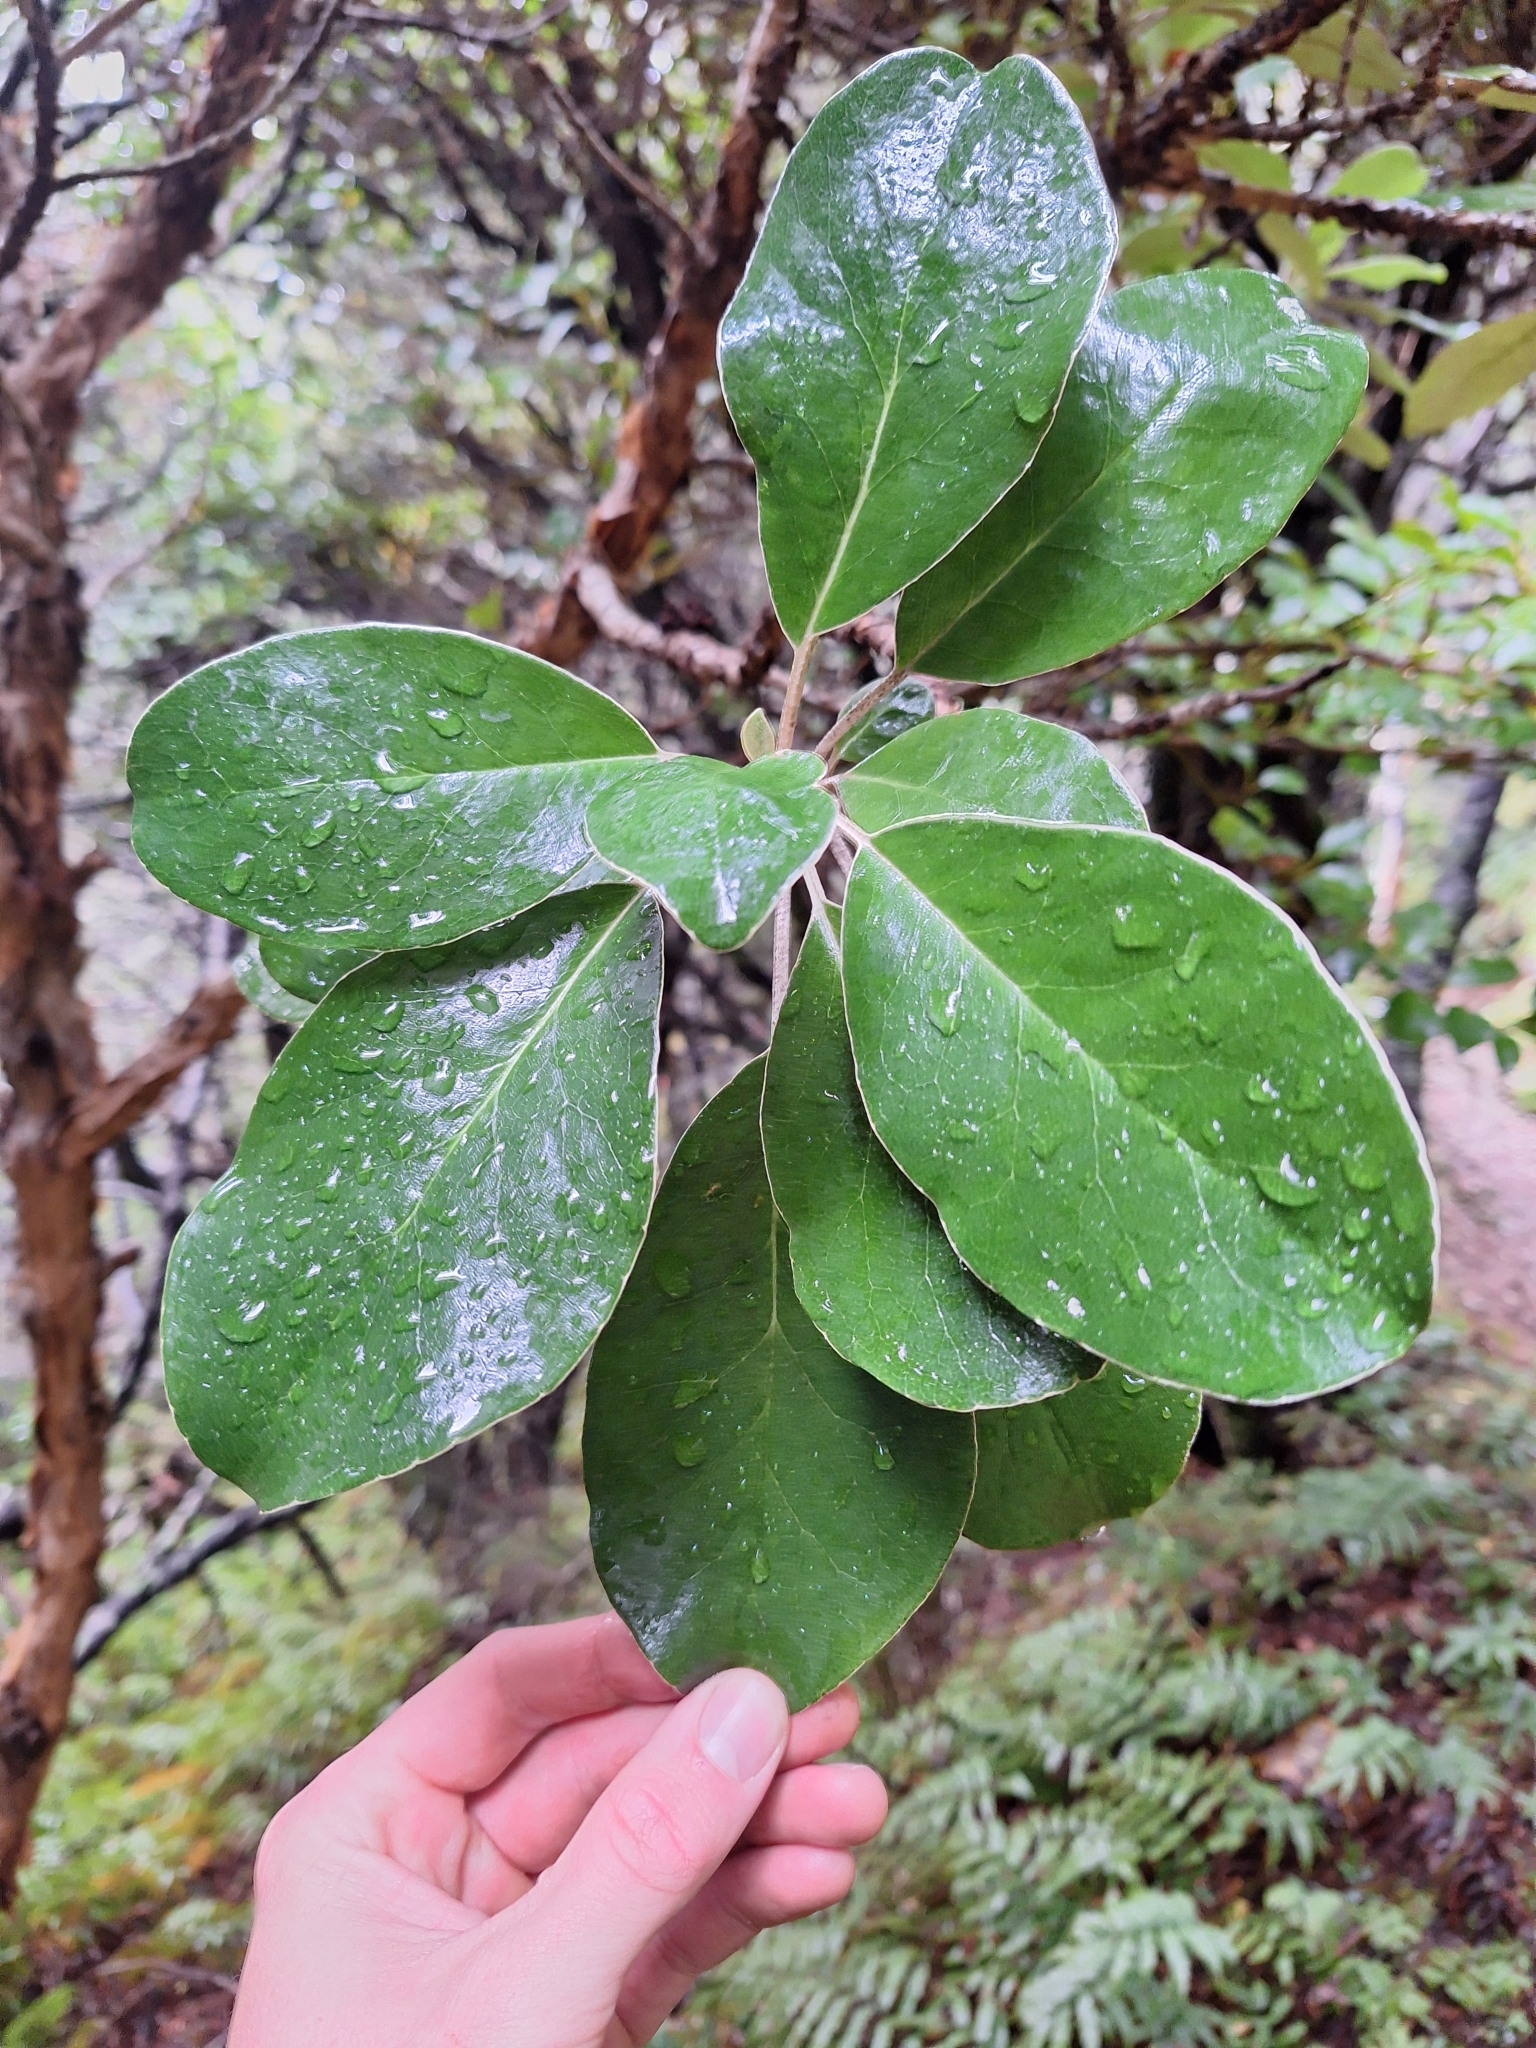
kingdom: Plantae
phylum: Tracheophyta
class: Magnoliopsida
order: Asterales
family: Asteraceae
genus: Brachyglottis
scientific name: Brachyglottis buchananii
